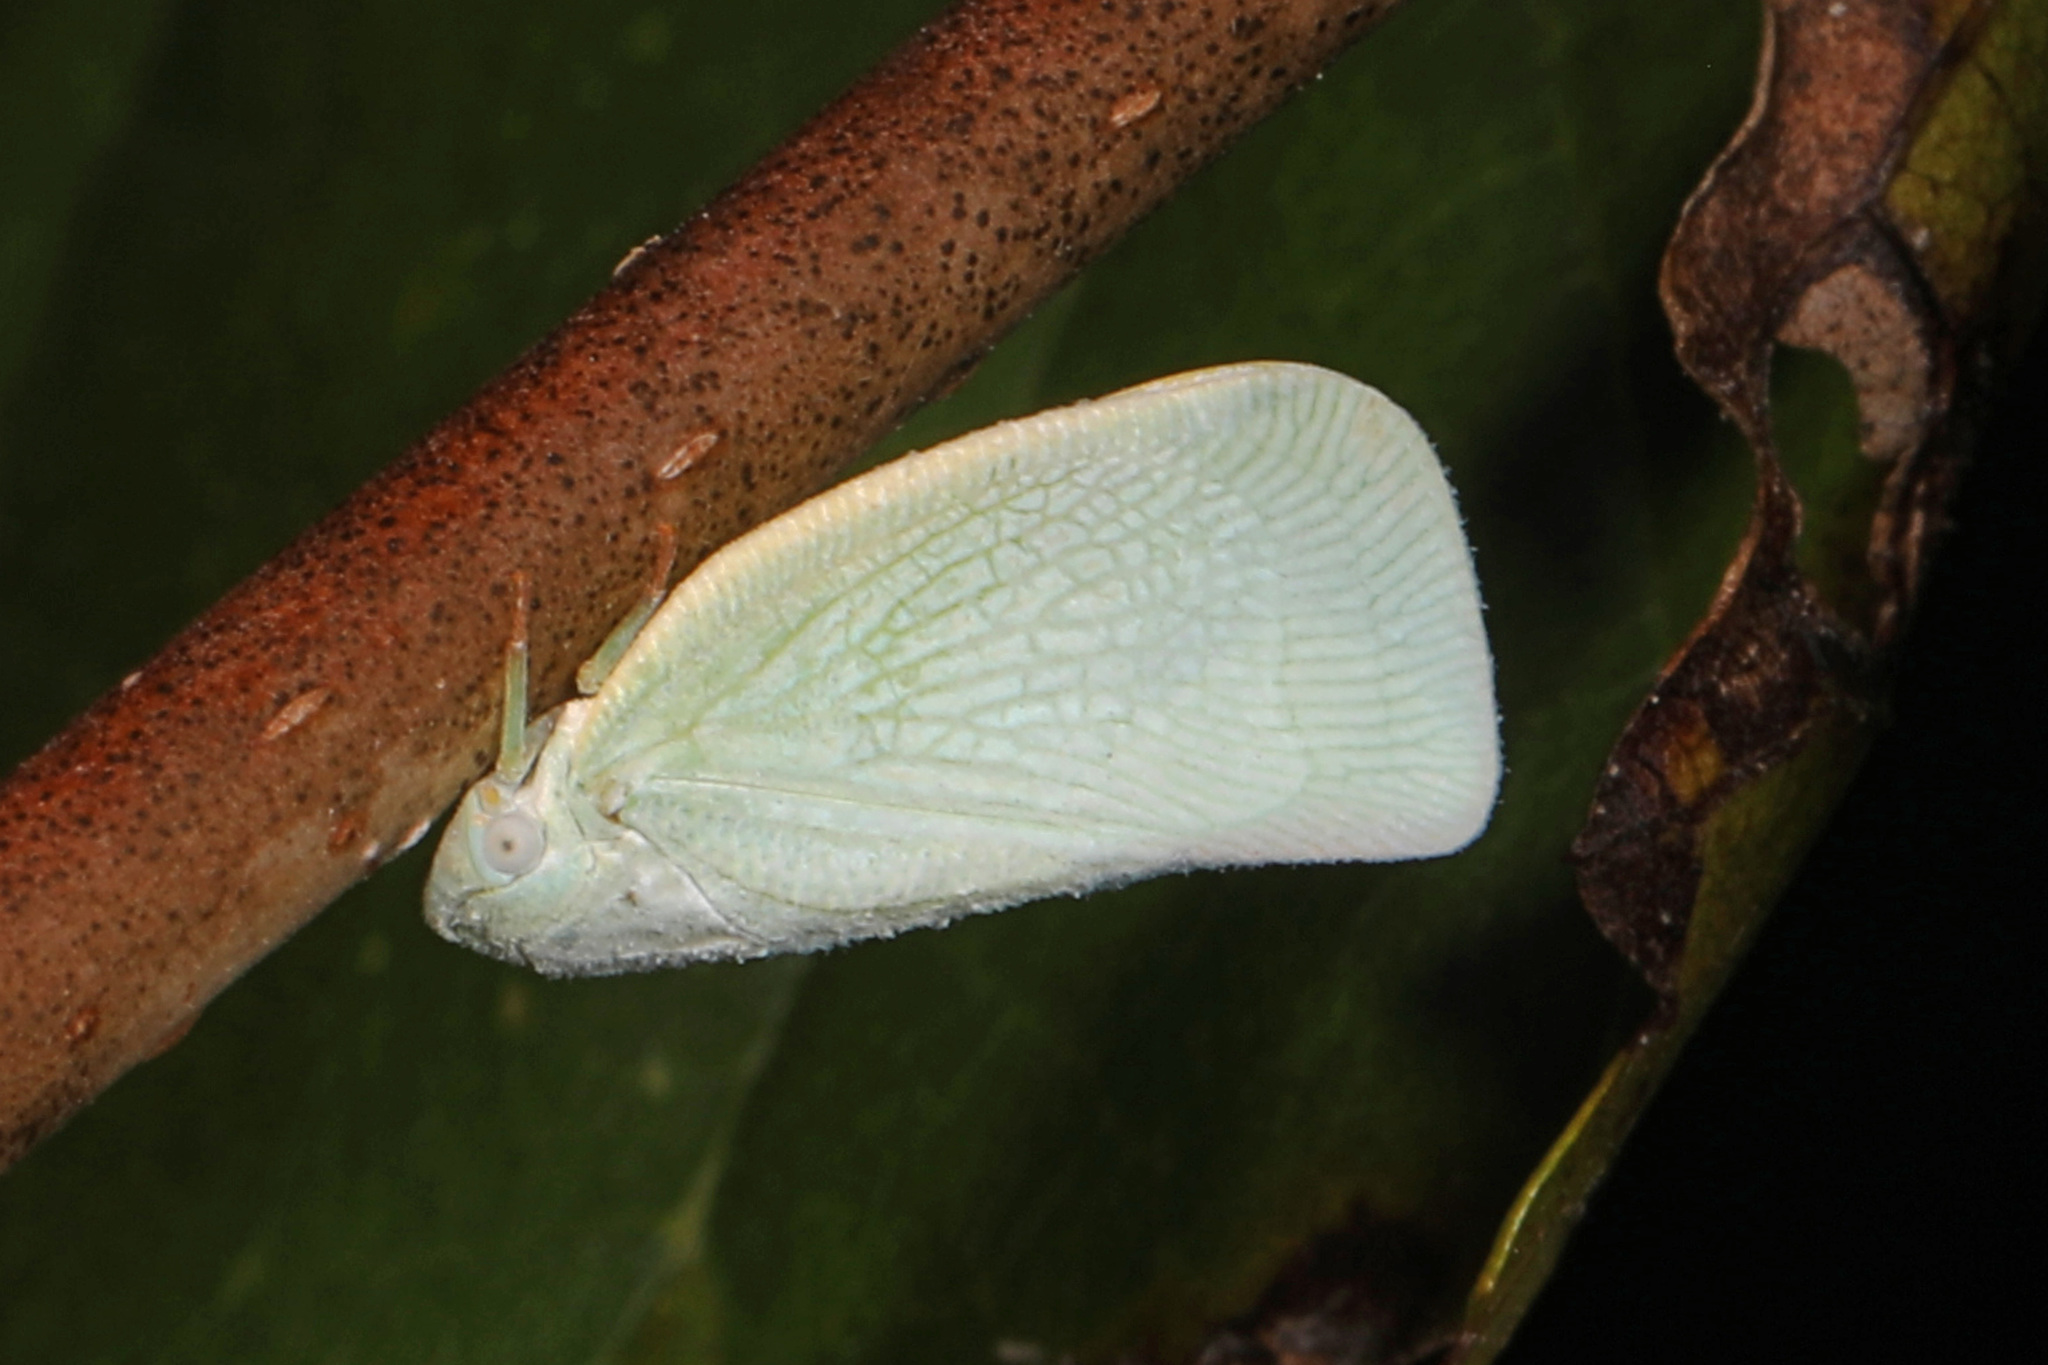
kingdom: Animalia
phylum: Arthropoda
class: Insecta
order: Hemiptera
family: Flatidae
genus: Flatormenis
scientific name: Flatormenis proxima
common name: Northern flatid planthopper
